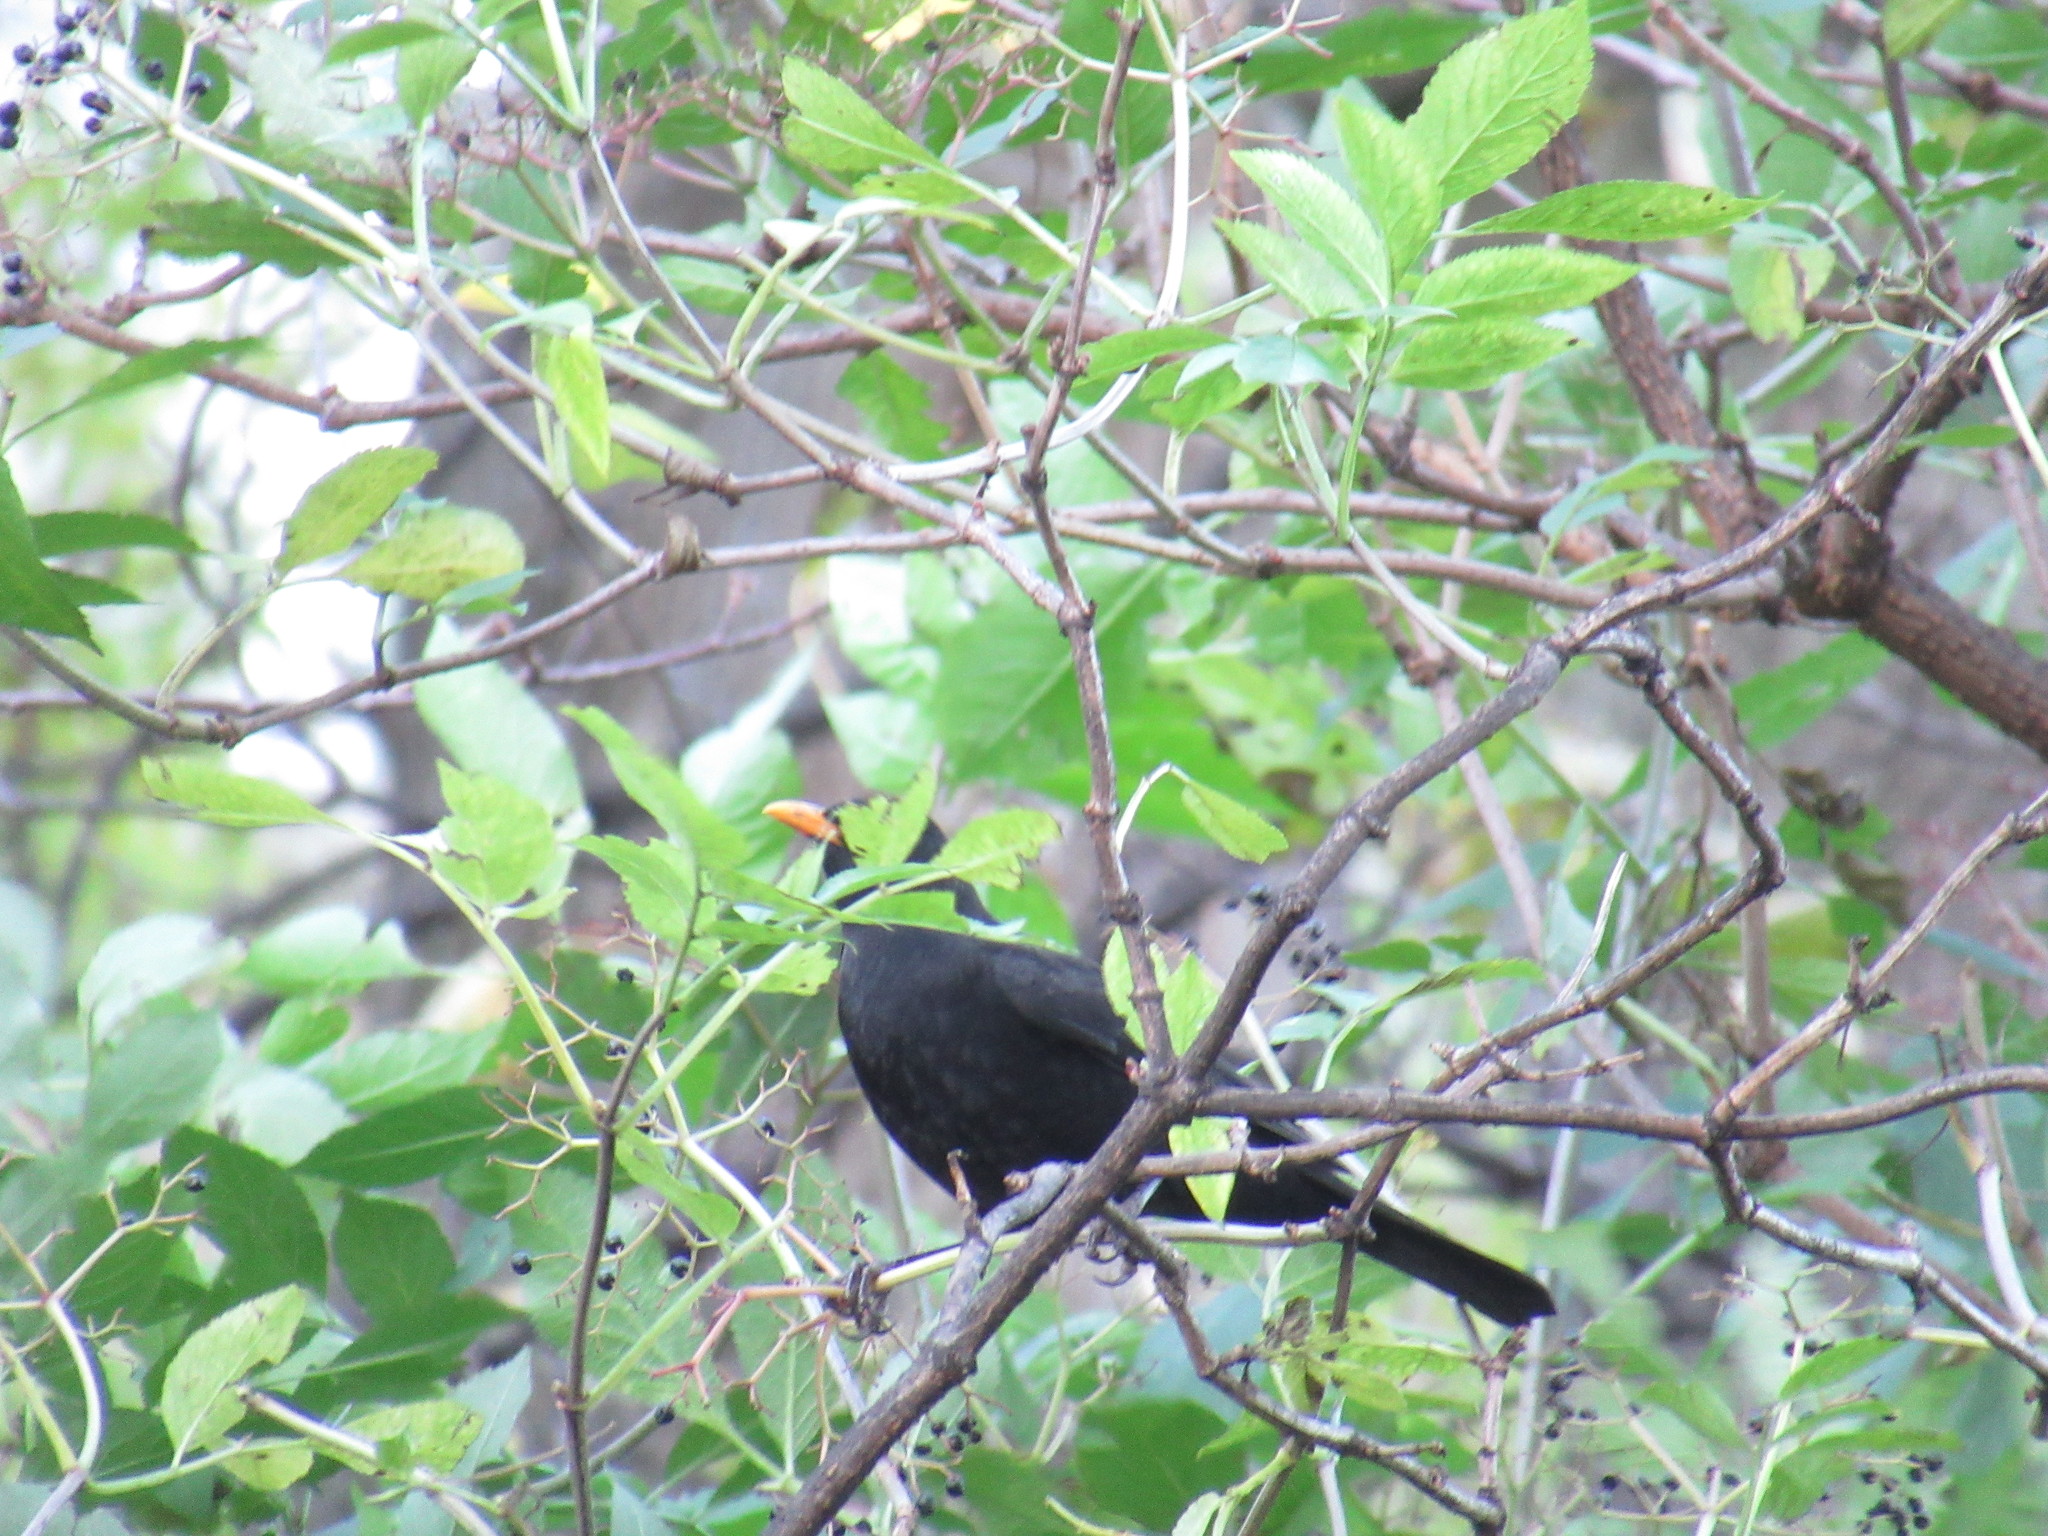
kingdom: Animalia
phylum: Chordata
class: Aves
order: Passeriformes
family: Turdidae
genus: Turdus
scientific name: Turdus merula
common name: Common blackbird
